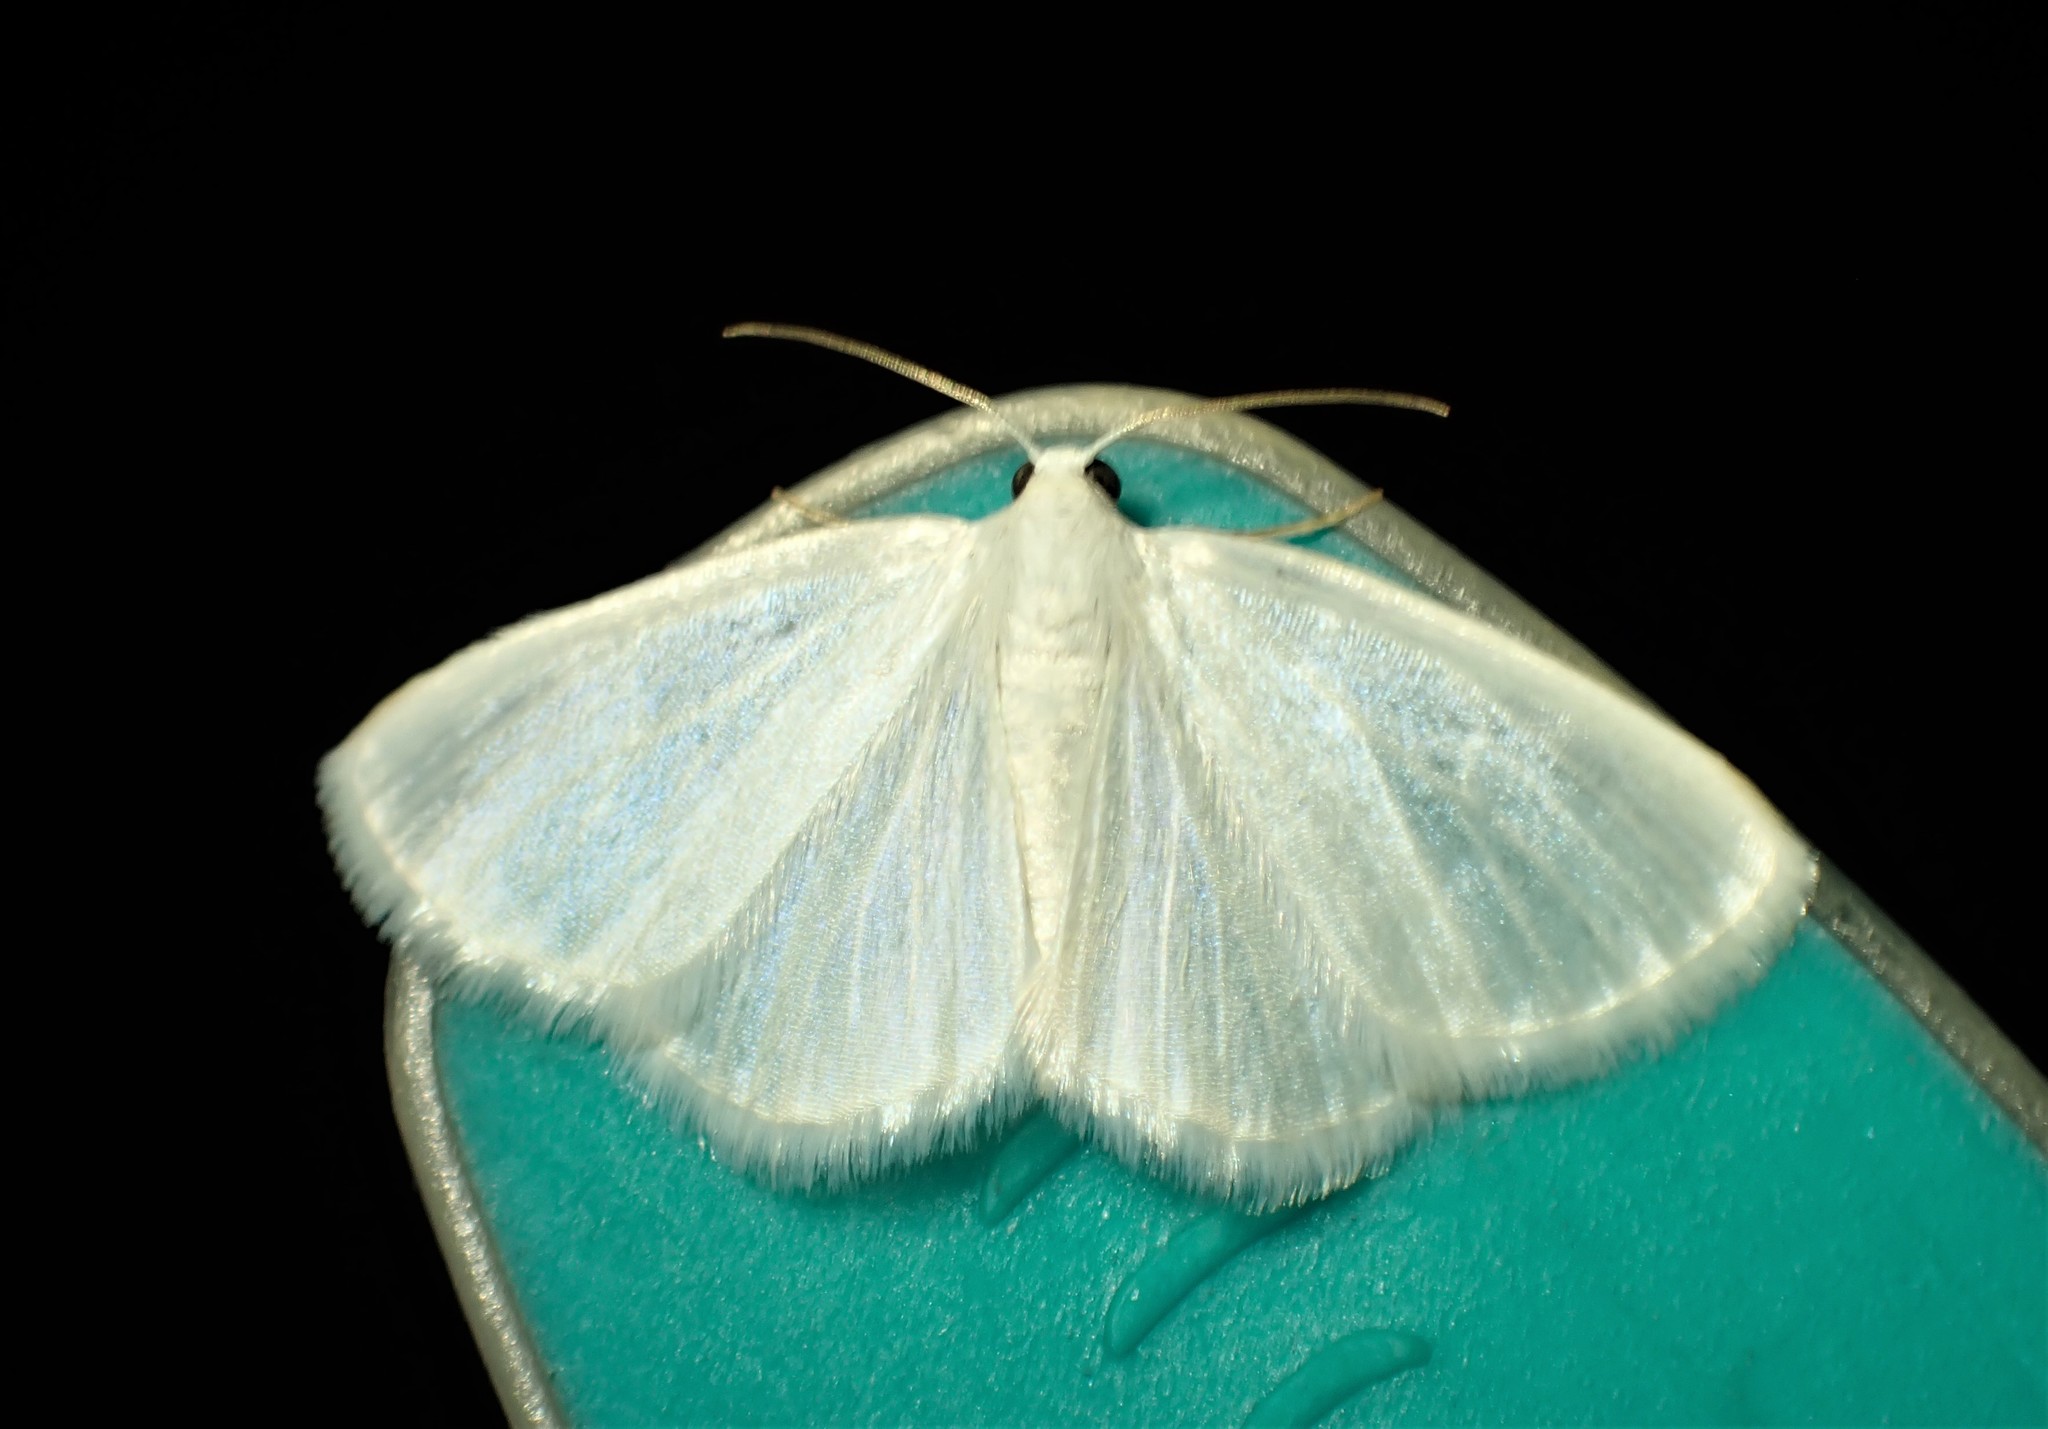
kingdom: Animalia
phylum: Arthropoda
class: Insecta
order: Lepidoptera
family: Geometridae
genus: Lomographa
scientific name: Lomographa vestaliata
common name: White spring moth
